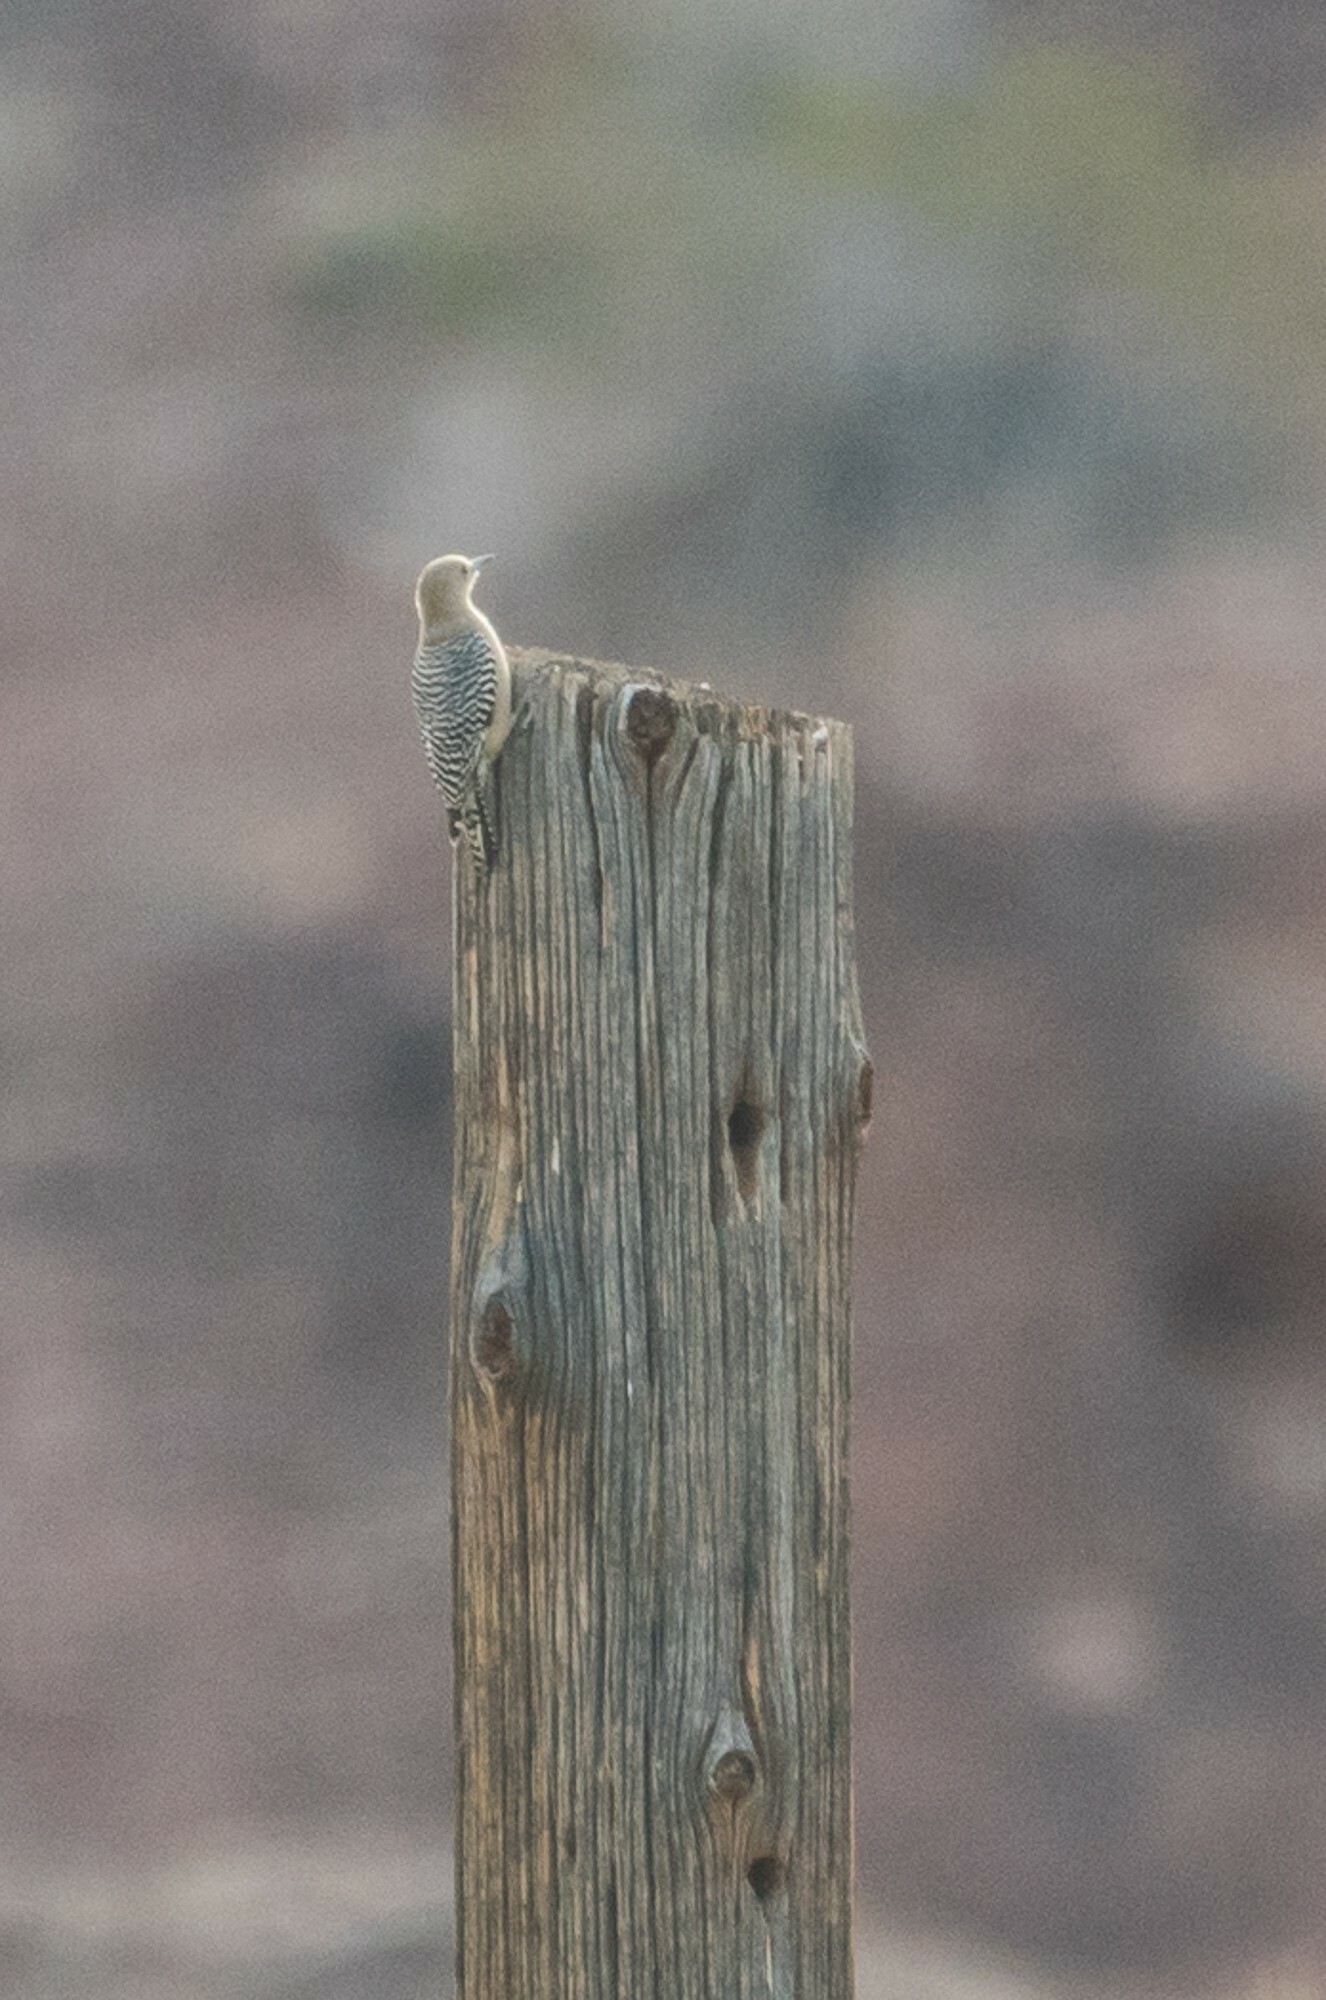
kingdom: Animalia
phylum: Chordata
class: Aves
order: Piciformes
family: Picidae
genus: Melanerpes
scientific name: Melanerpes uropygialis
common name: Gila woodpecker
